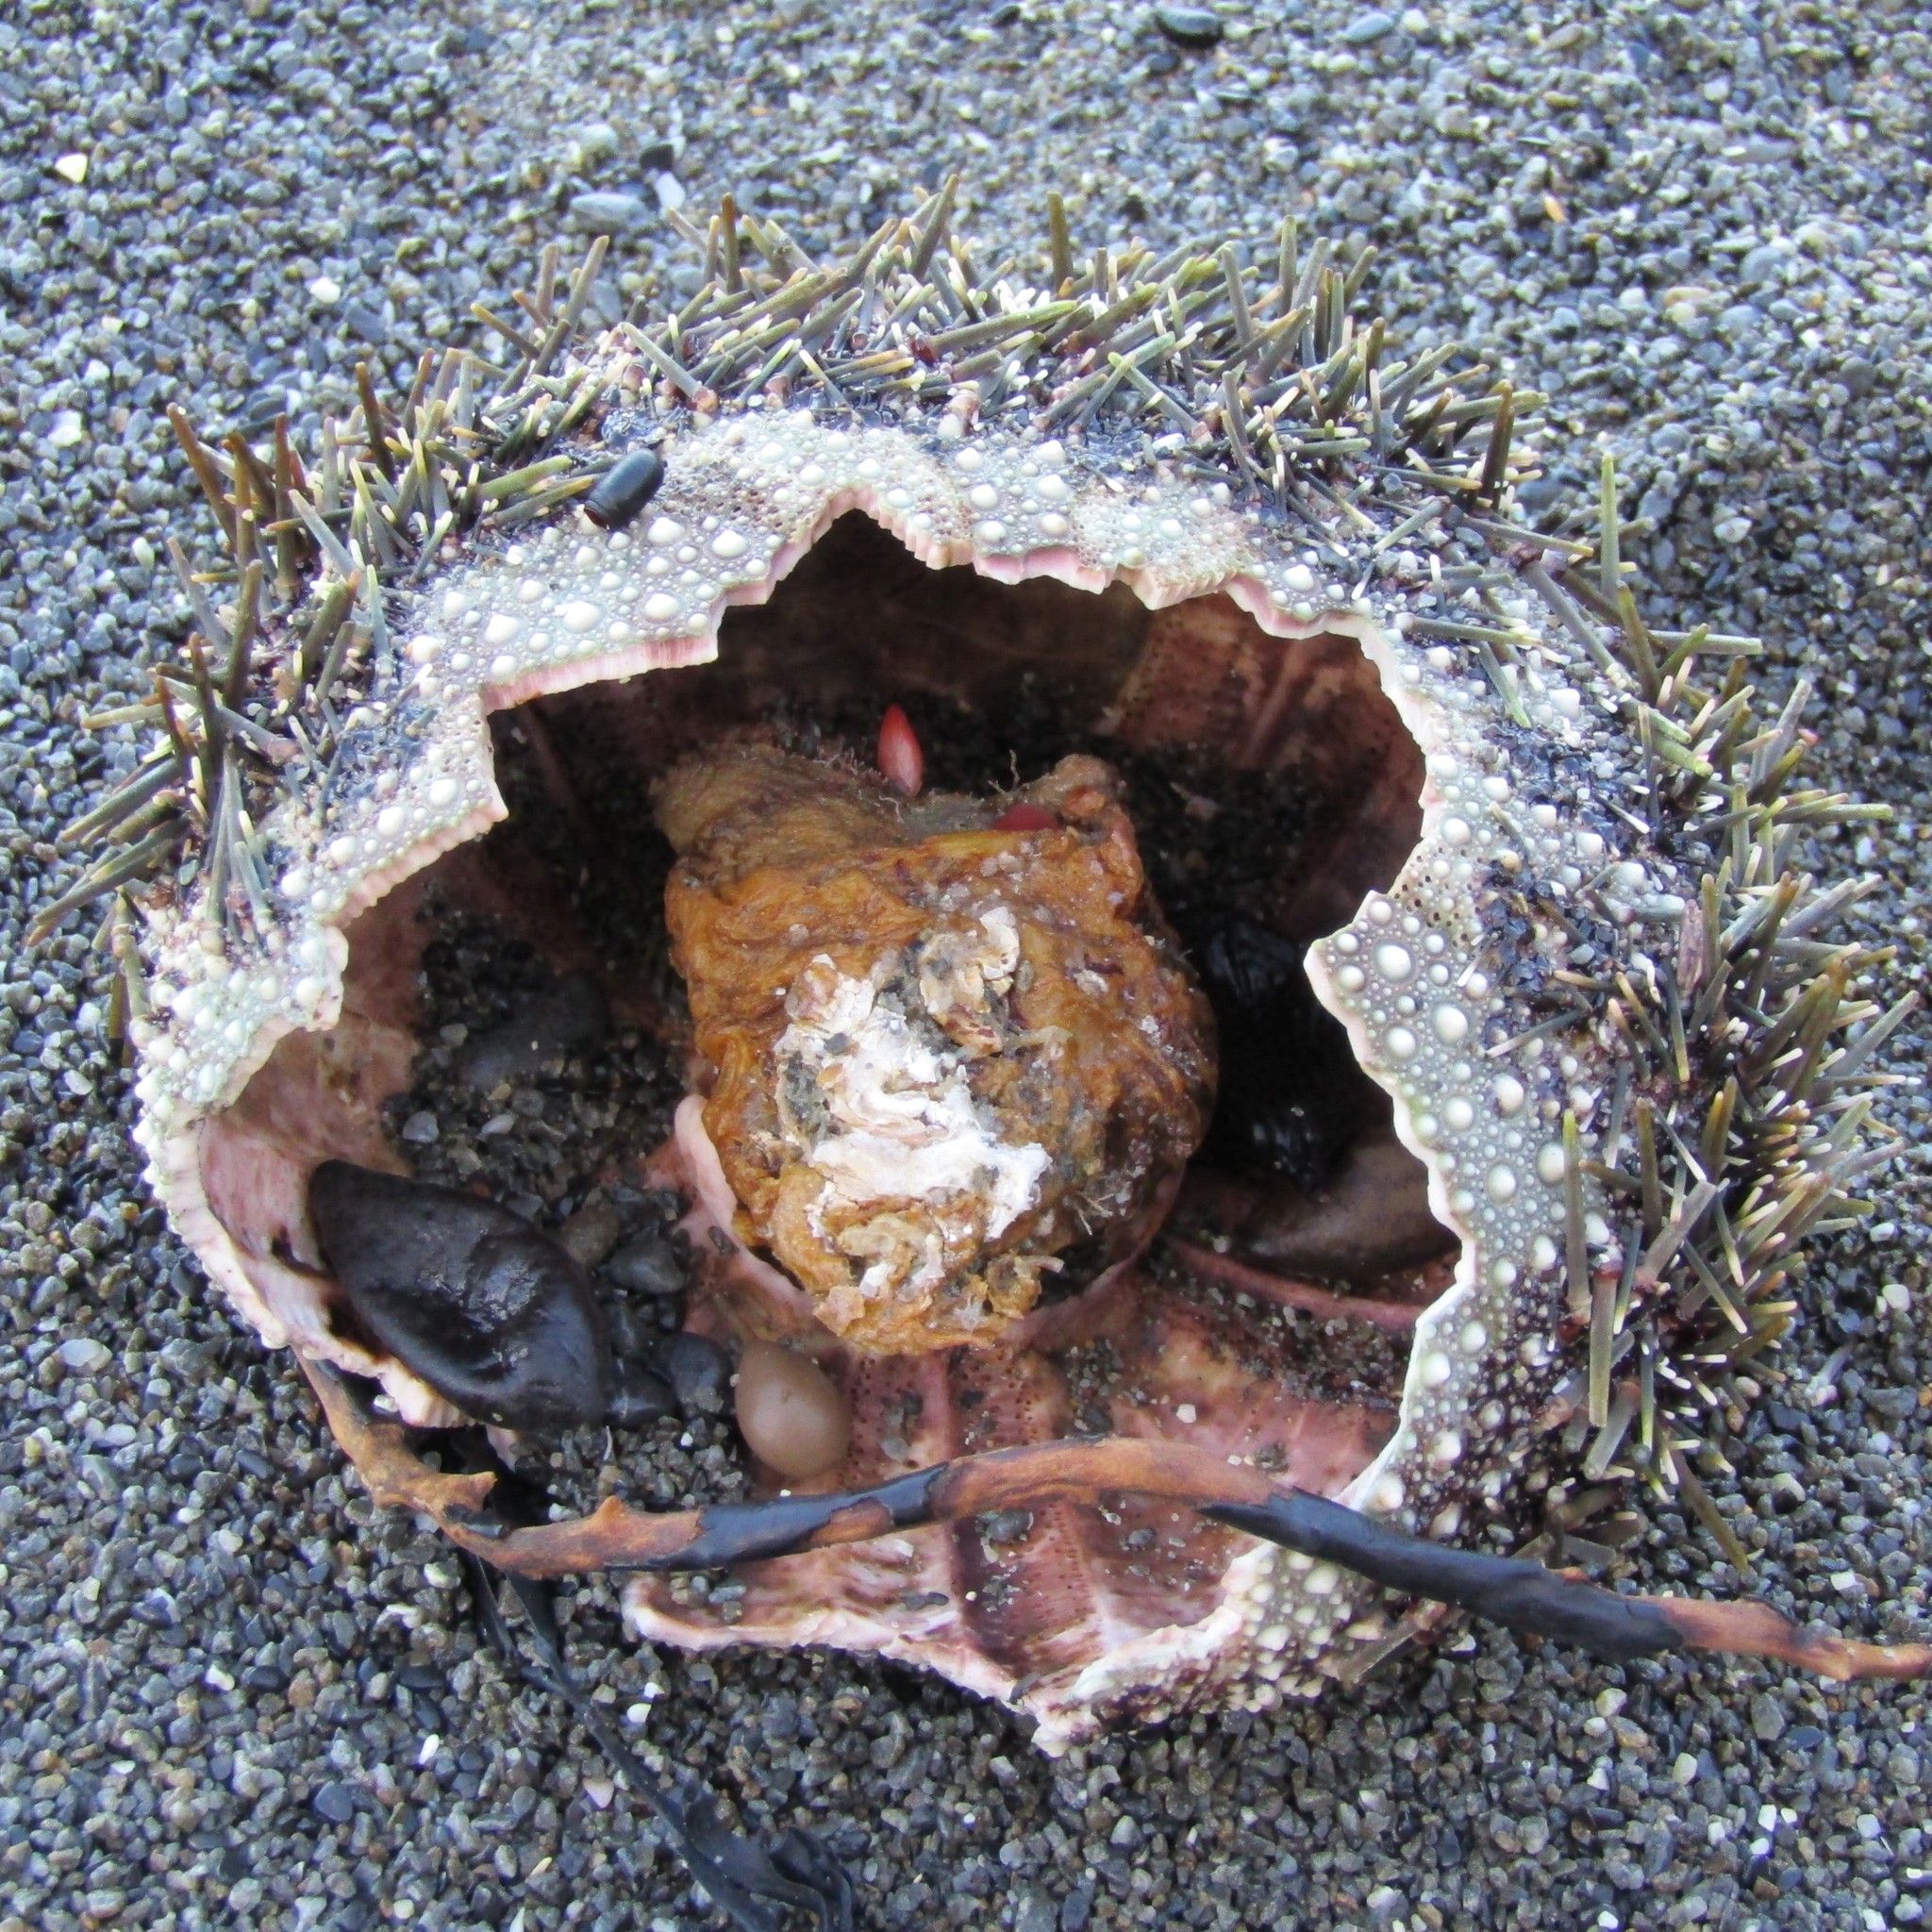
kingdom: Animalia
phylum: Echinodermata
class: Echinoidea
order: Camarodonta
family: Echinometridae
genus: Evechinus
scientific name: Evechinus chloroticus
